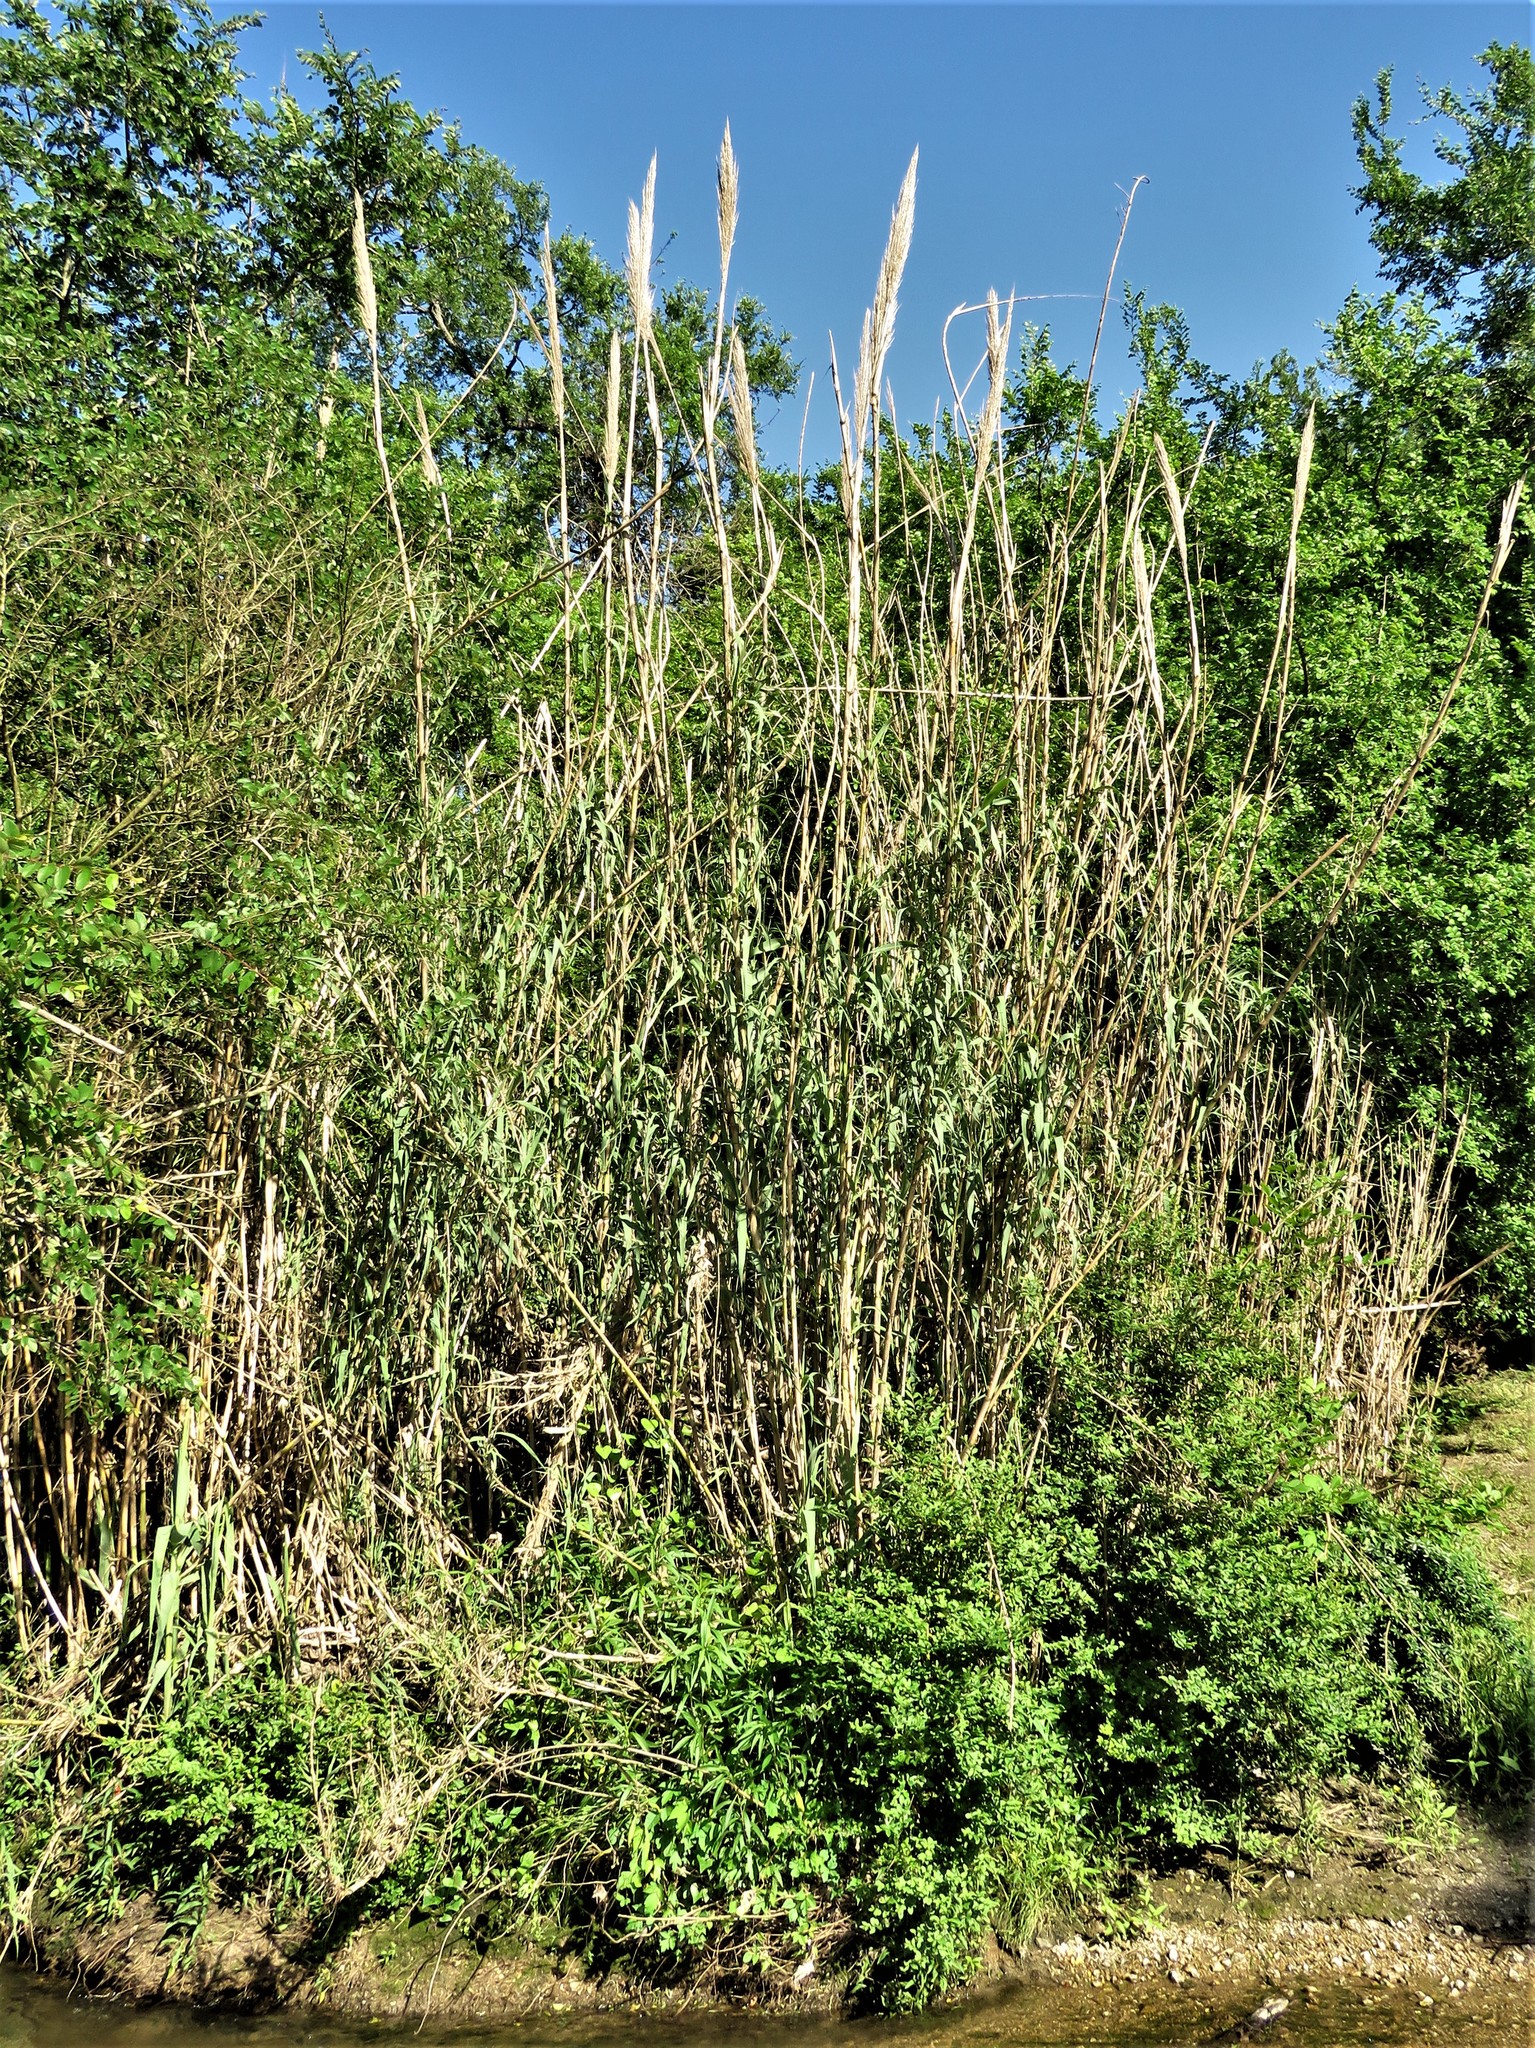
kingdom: Plantae
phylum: Tracheophyta
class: Liliopsida
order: Poales
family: Poaceae
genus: Arundo
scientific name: Arundo donax
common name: Giant reed
